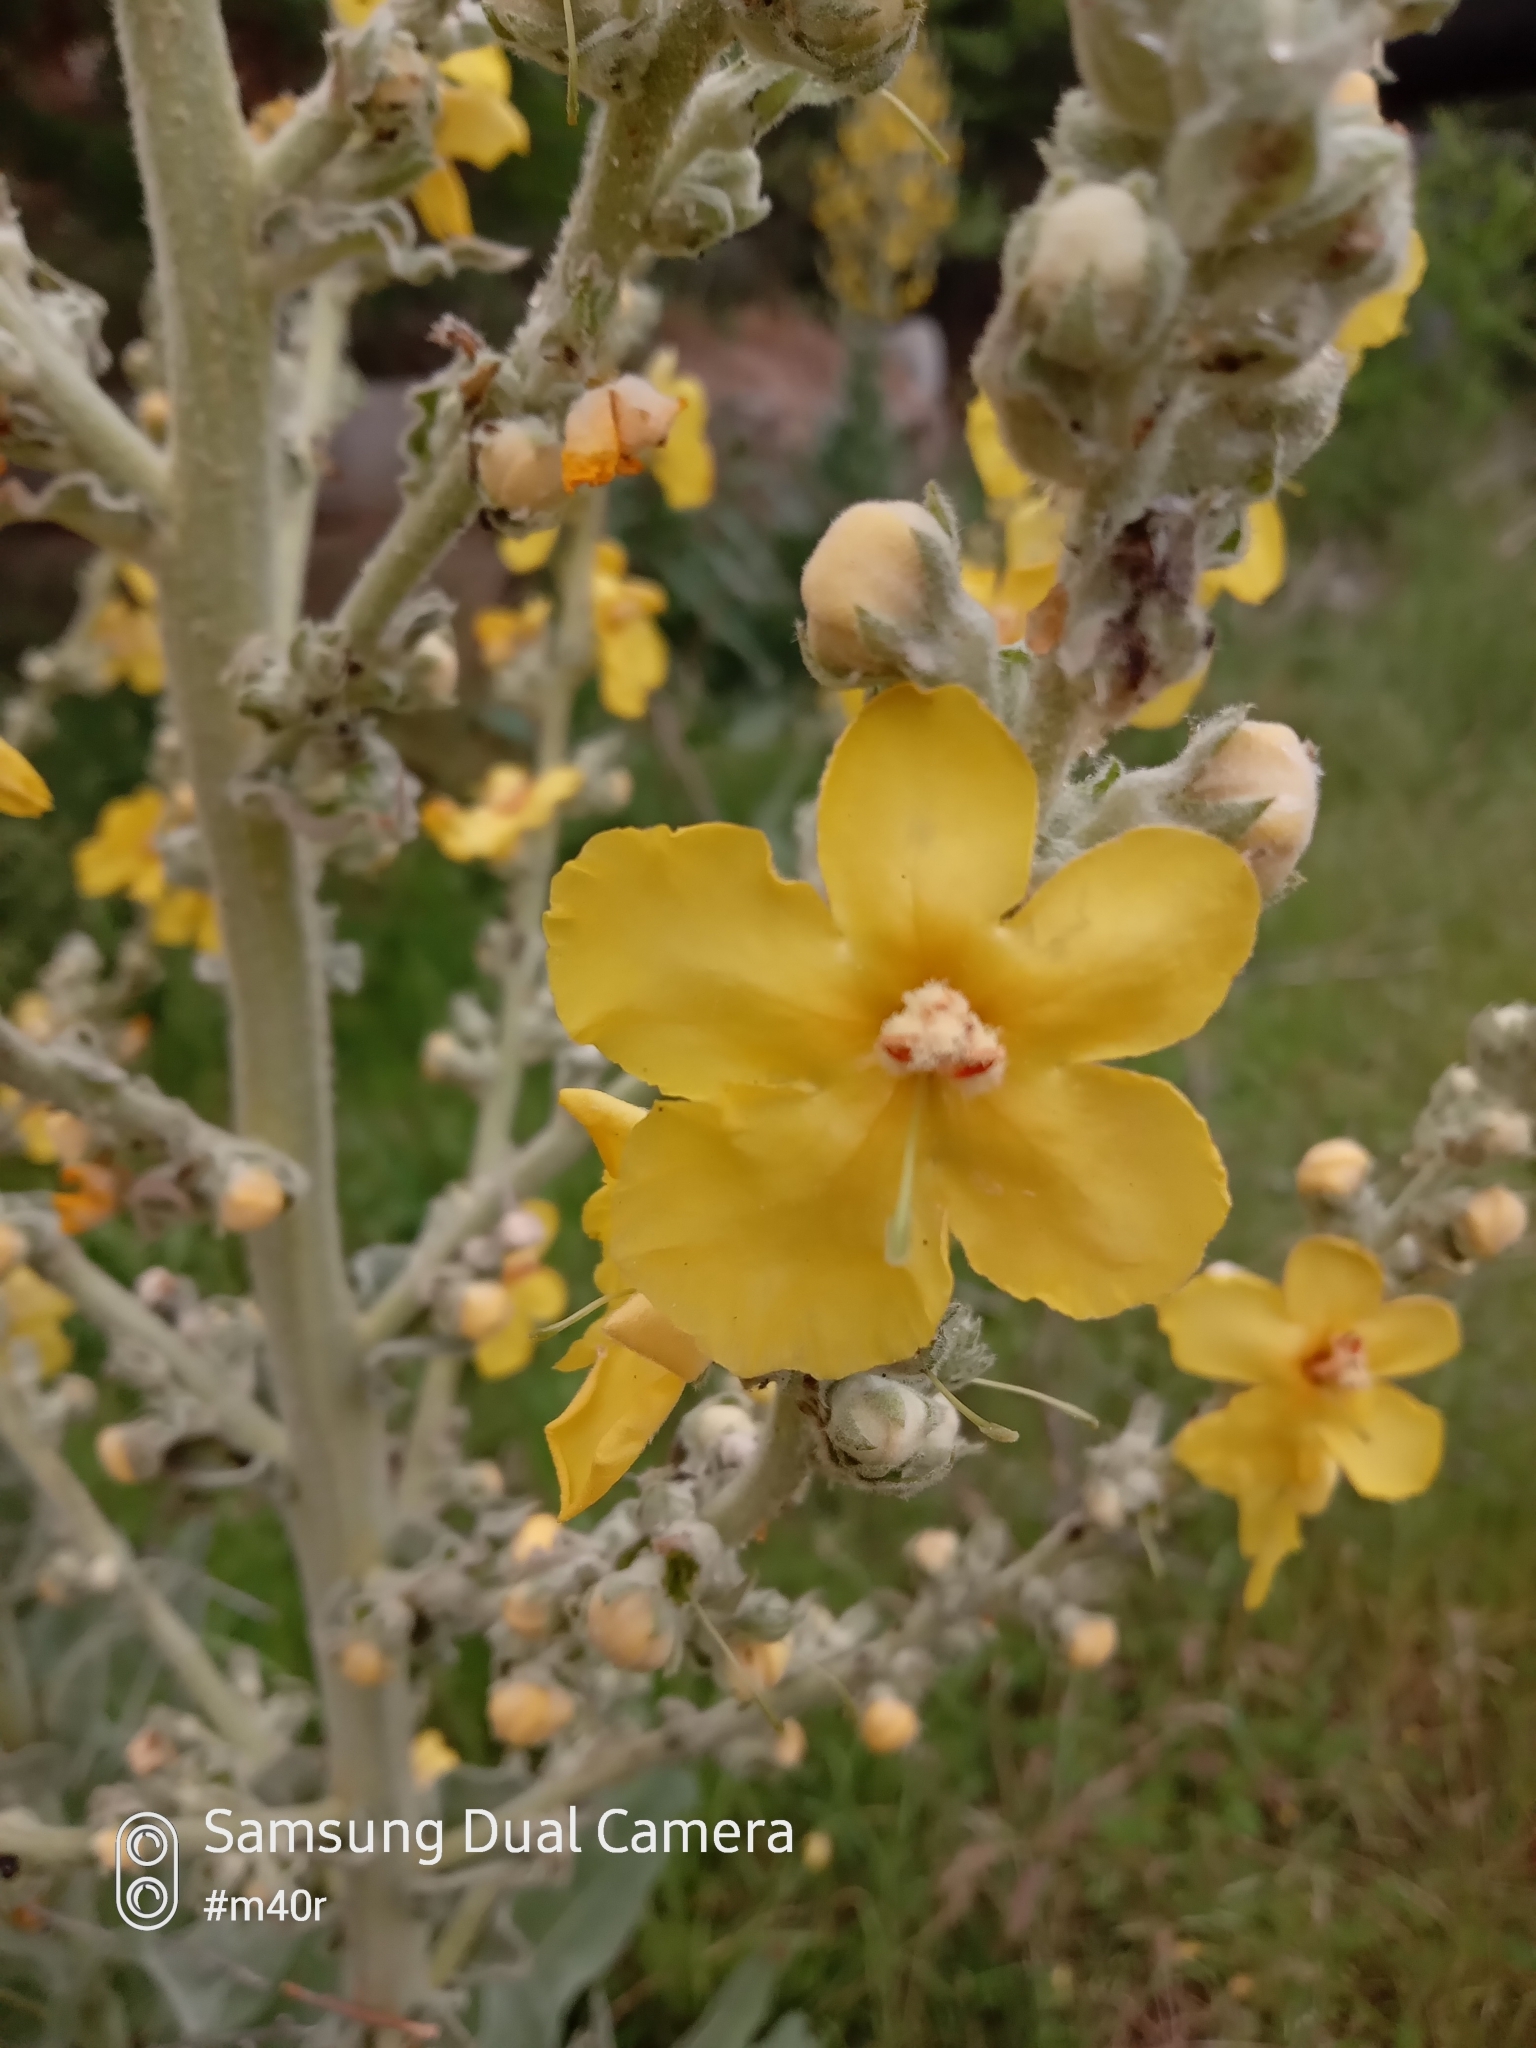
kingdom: Plantae
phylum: Tracheophyta
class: Magnoliopsida
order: Lamiales
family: Scrophulariaceae
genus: Verbascum
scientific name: Verbascum songaricum
